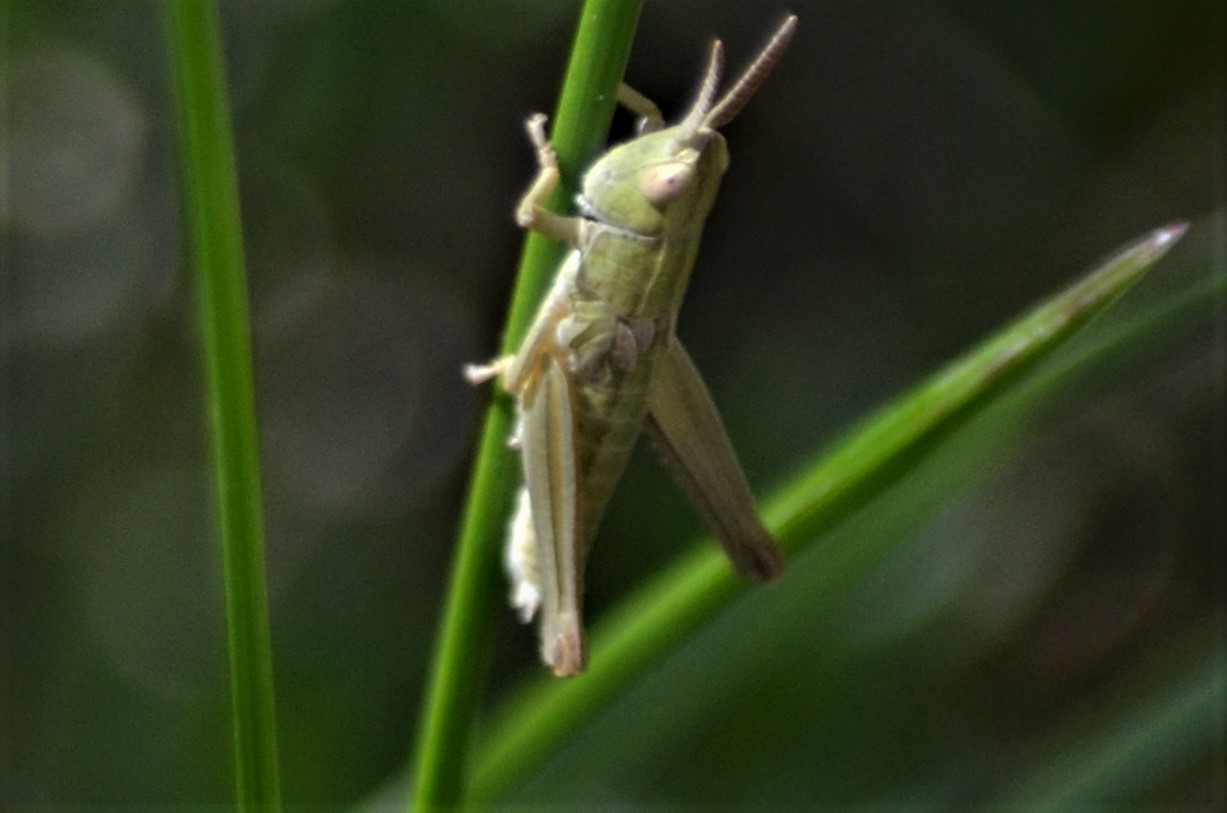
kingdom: Animalia
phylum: Arthropoda
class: Insecta
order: Orthoptera
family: Acrididae
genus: Euthystira
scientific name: Euthystira brachyptera
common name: Small gold grasshopper
